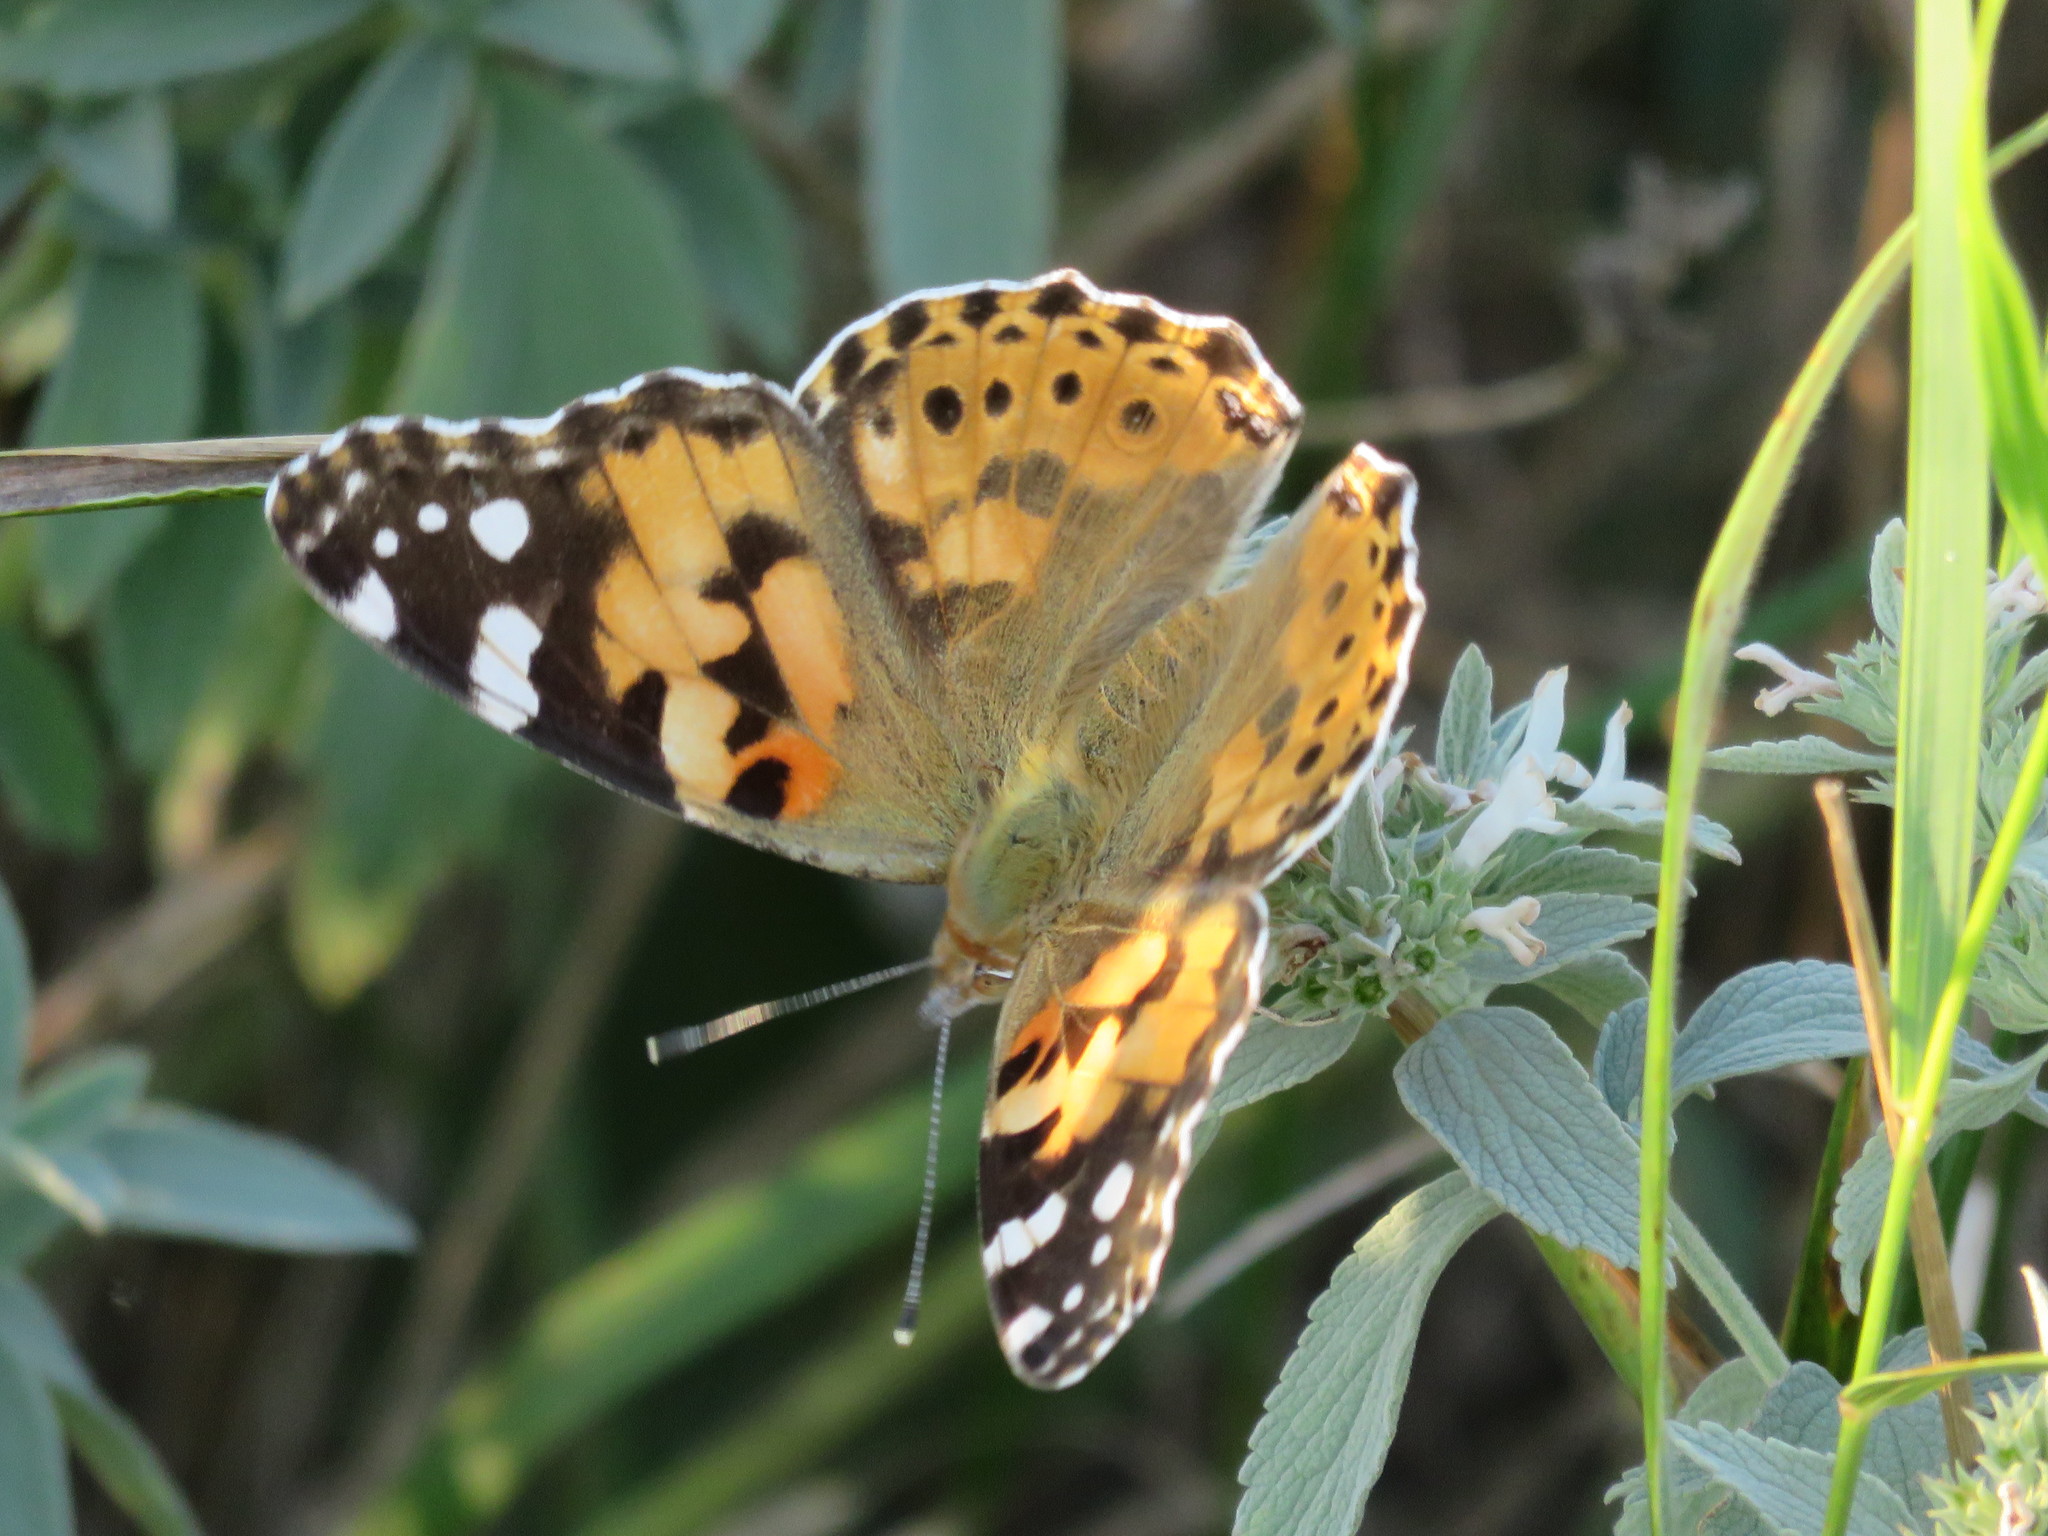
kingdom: Animalia
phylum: Arthropoda
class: Insecta
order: Lepidoptera
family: Nymphalidae
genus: Vanessa
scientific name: Vanessa cardui
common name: Painted lady
